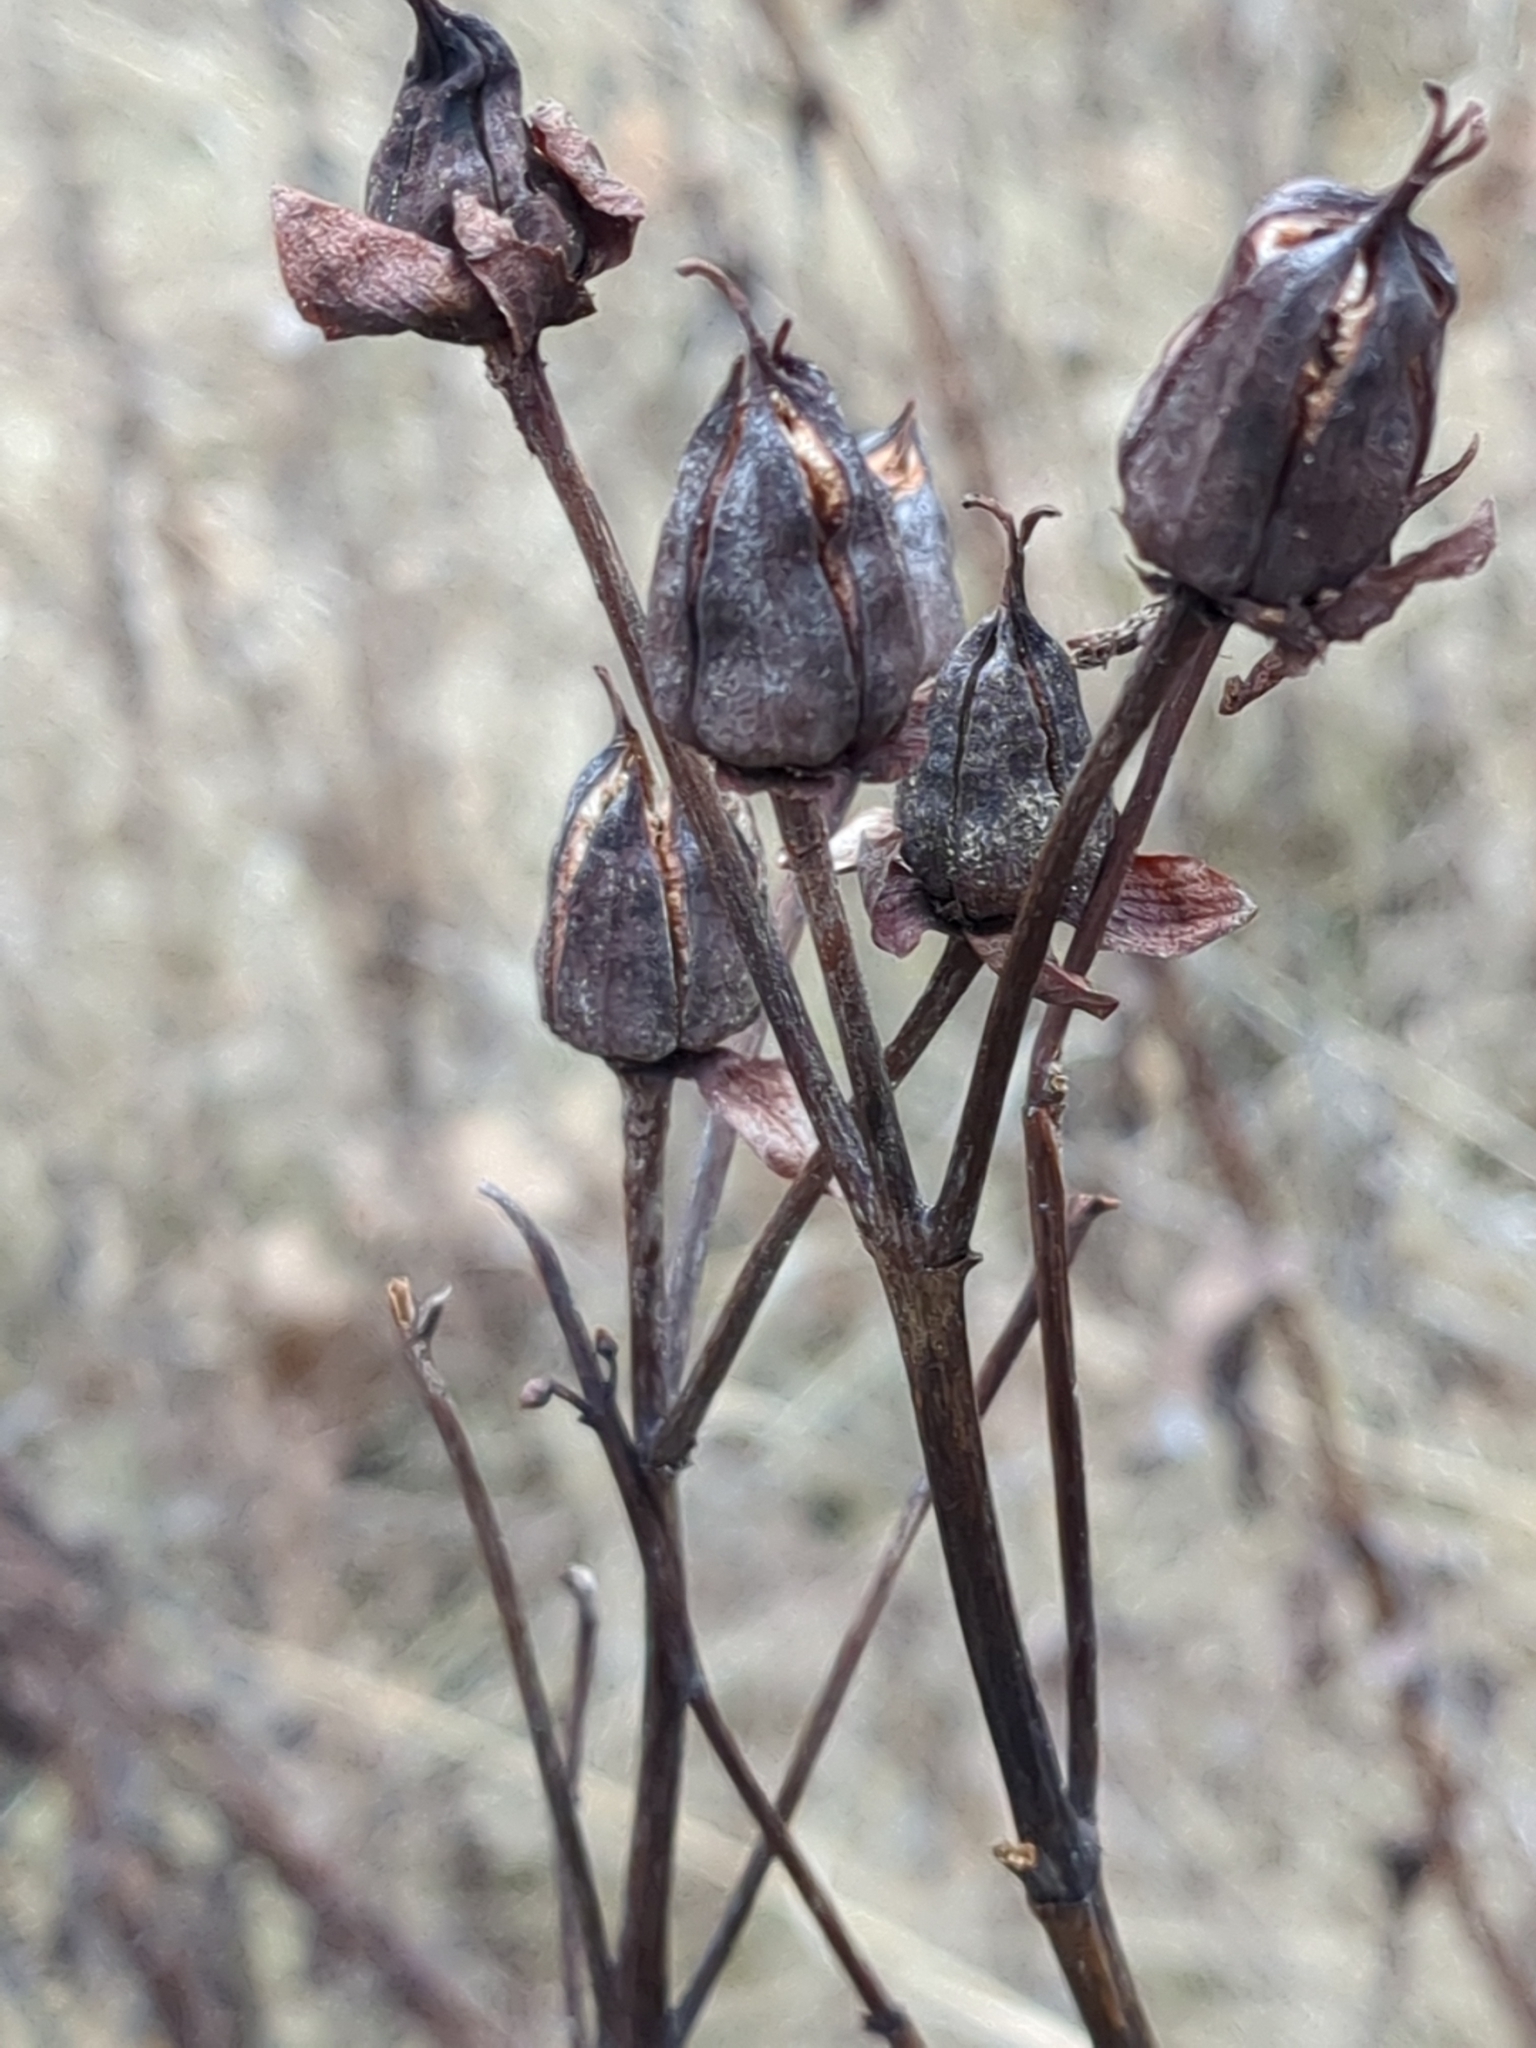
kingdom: Plantae
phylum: Tracheophyta
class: Magnoliopsida
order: Malpighiales
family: Hypericaceae
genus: Hypericum
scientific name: Hypericum ascyron
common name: Giant st. john's-wort
